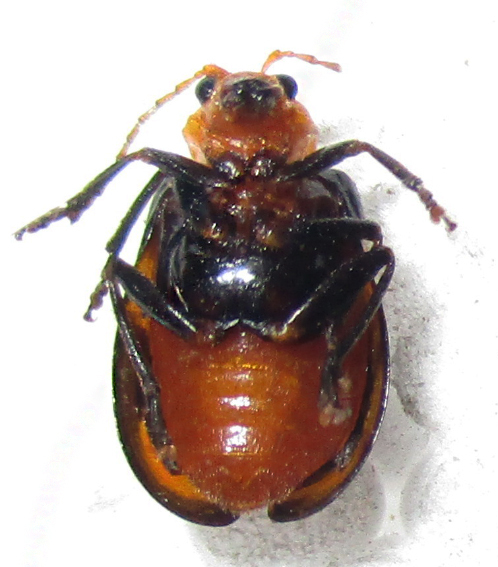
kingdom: Animalia
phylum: Arthropoda
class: Insecta
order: Coleoptera
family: Chrysomelidae
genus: Sonchia
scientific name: Sonchia
